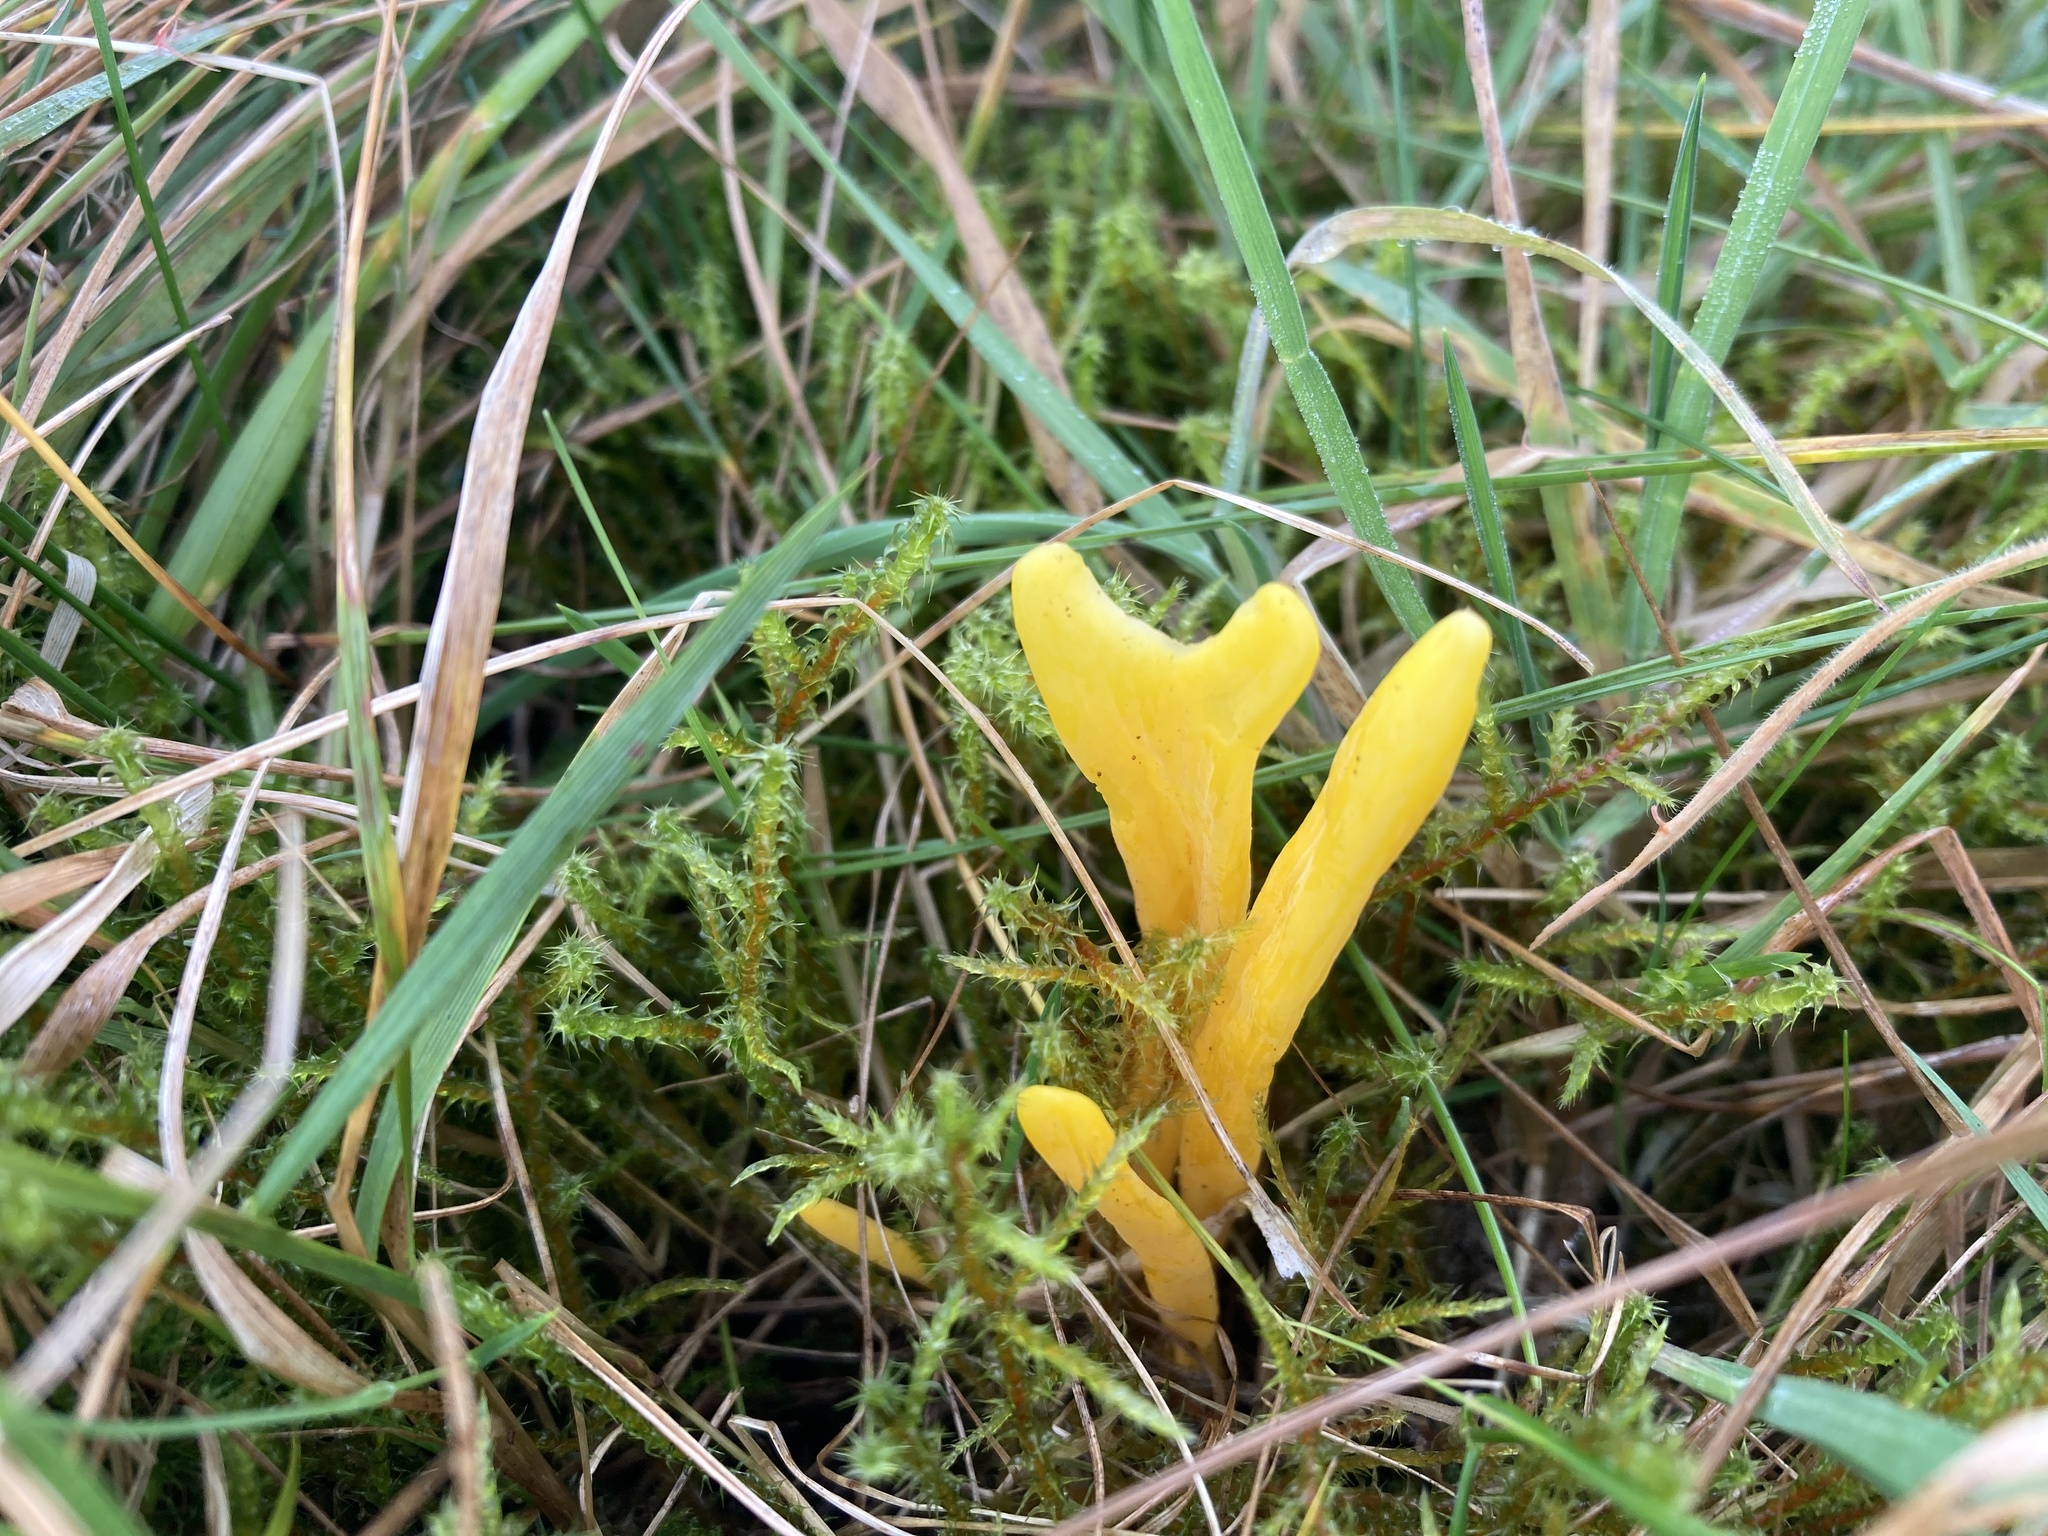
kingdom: Fungi
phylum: Basidiomycota
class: Agaricomycetes
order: Agaricales
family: Clavariaceae
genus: Clavulinopsis
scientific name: Clavulinopsis helvola
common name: Yellow club
